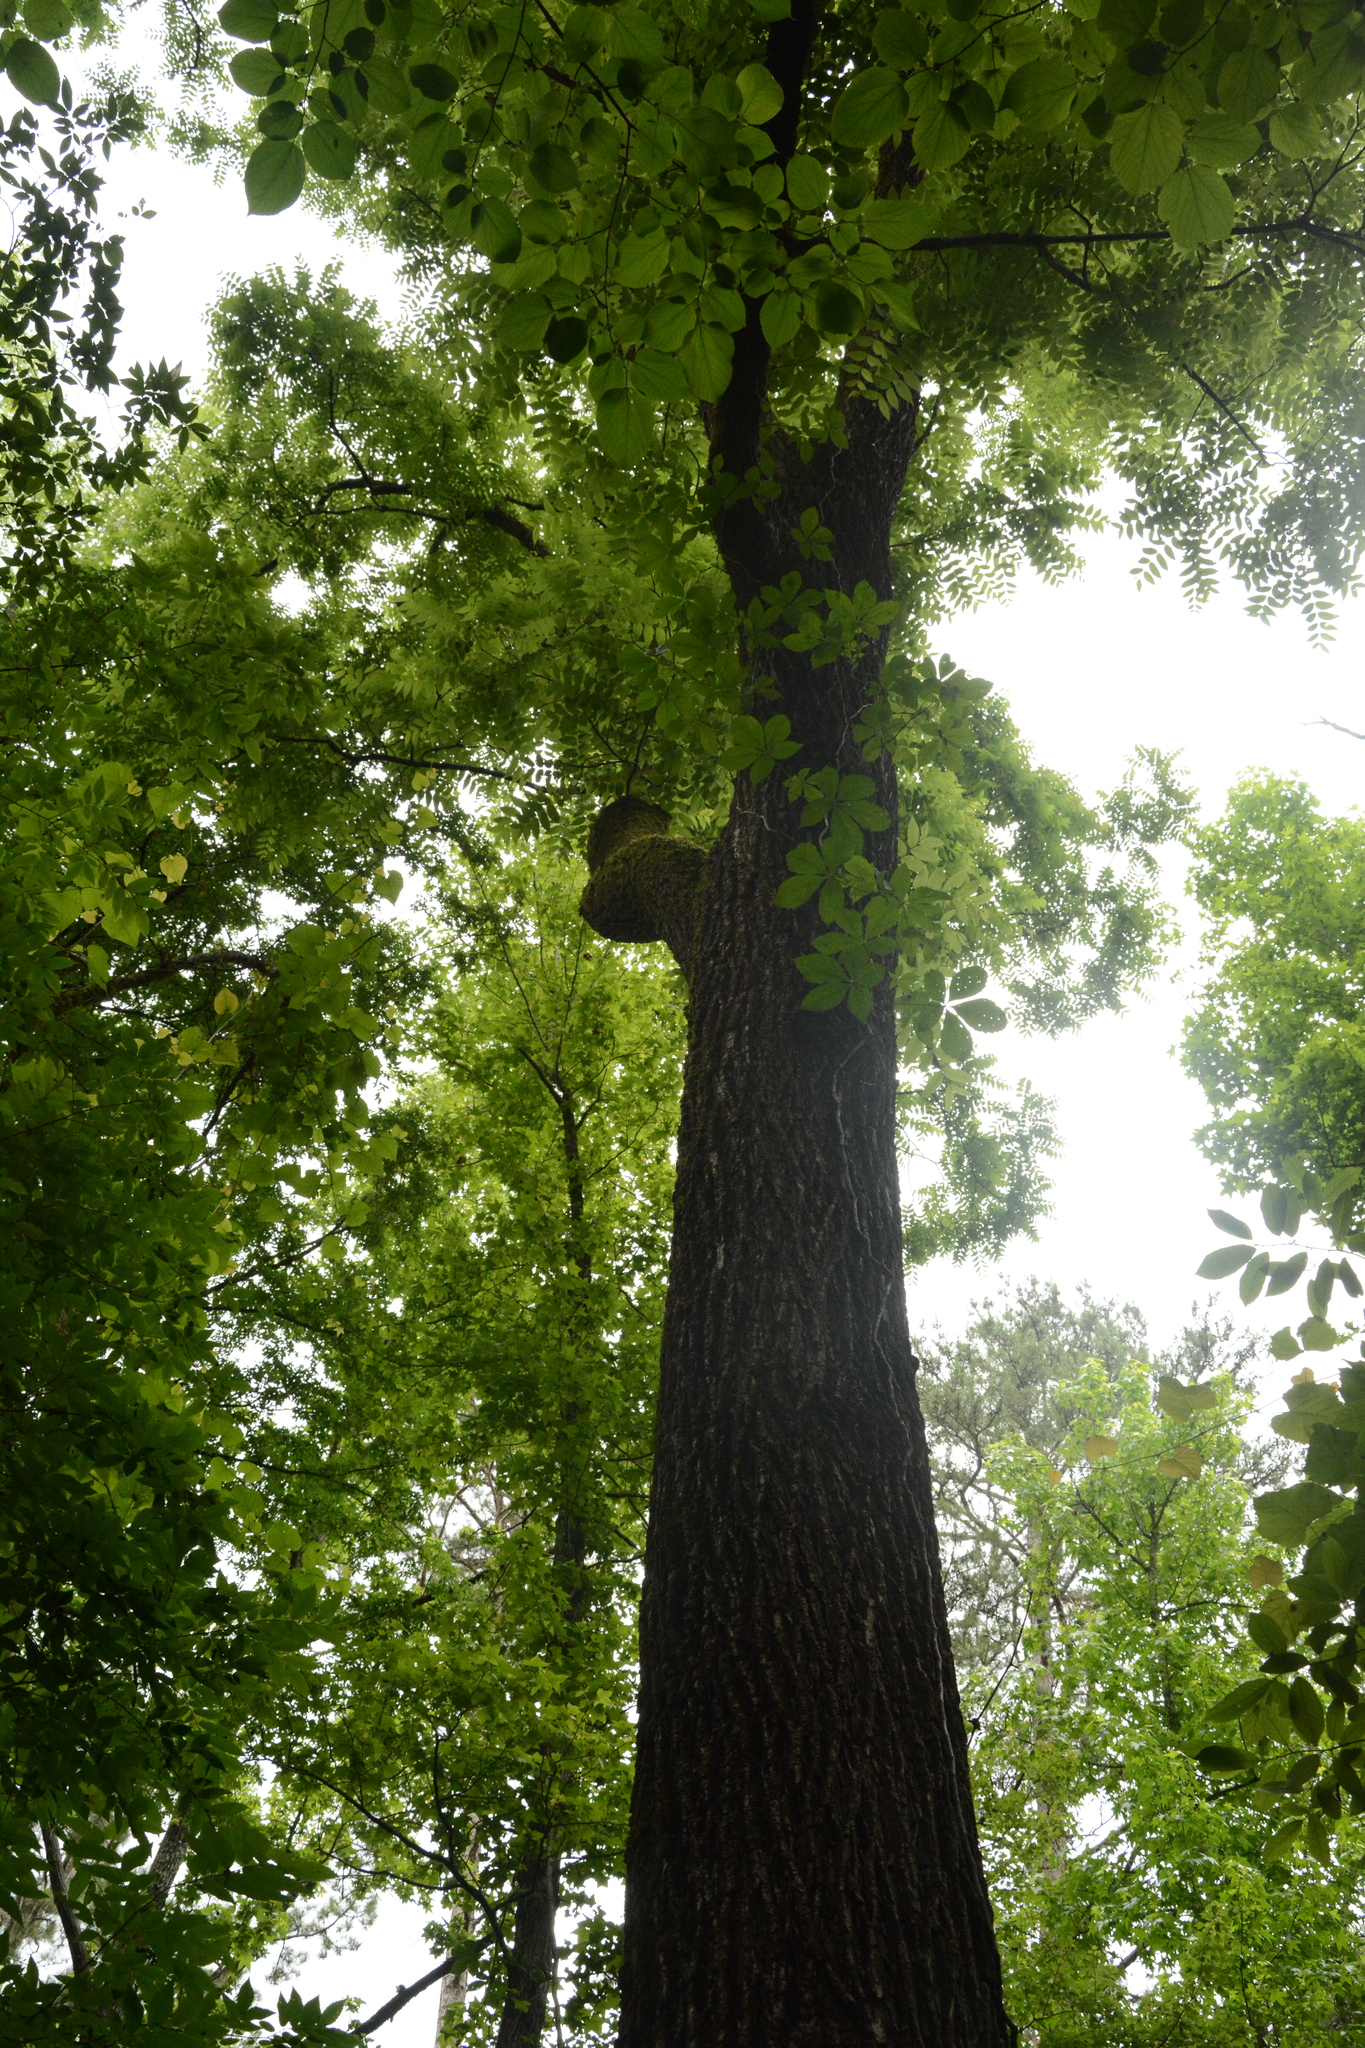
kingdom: Plantae
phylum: Tracheophyta
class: Magnoliopsida
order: Fagales
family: Juglandaceae
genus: Juglans
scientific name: Juglans nigra
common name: Black walnut
